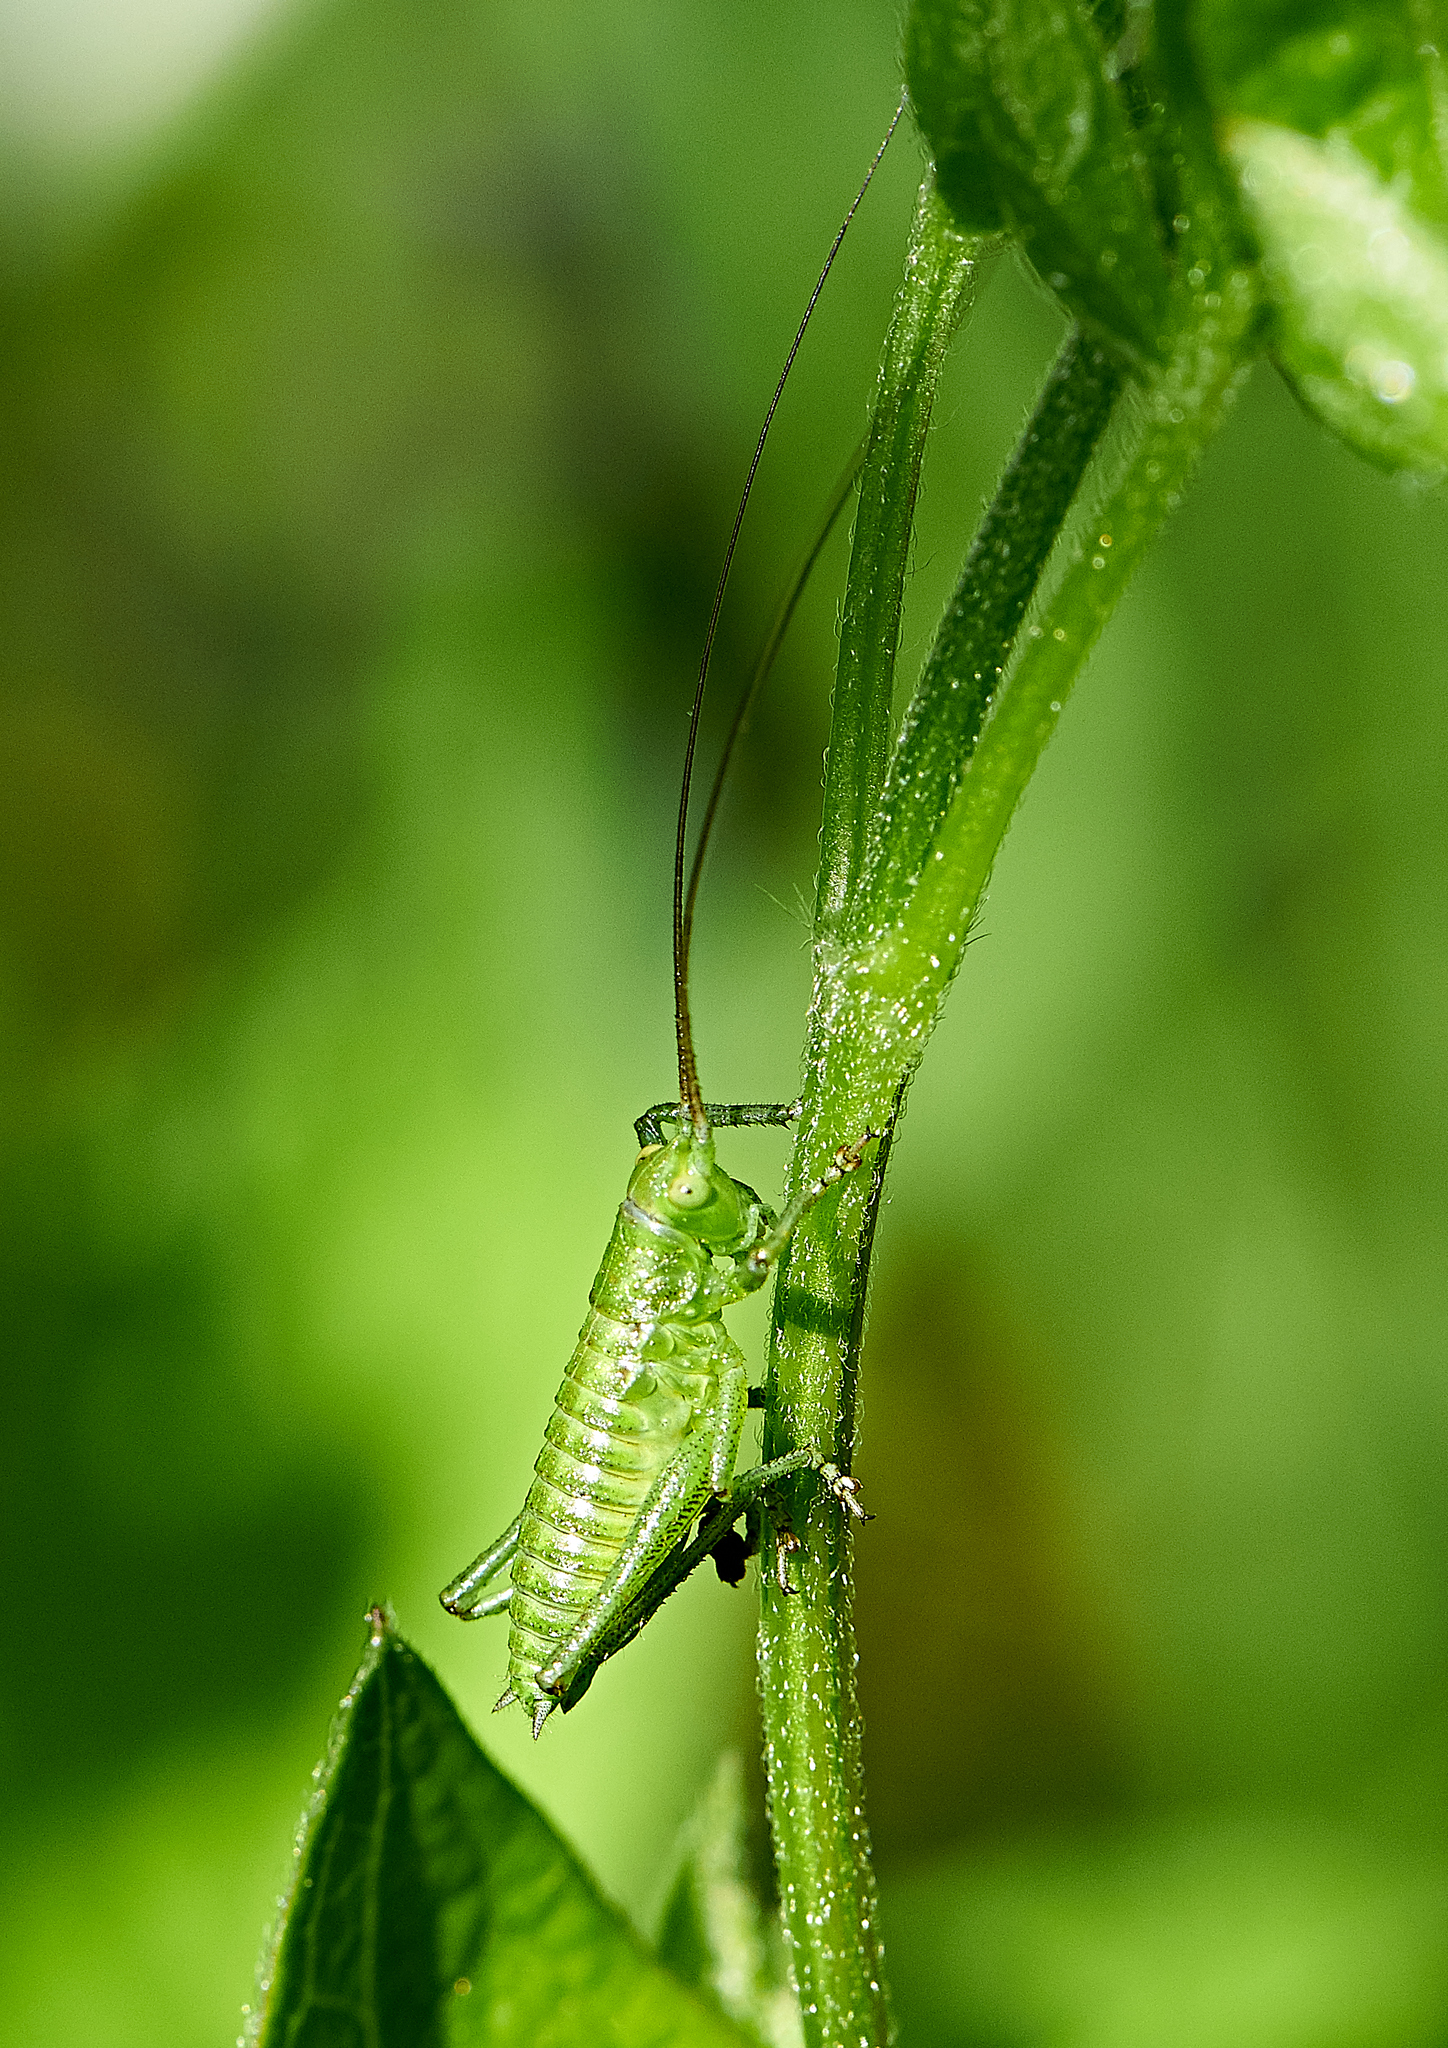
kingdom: Animalia
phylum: Arthropoda
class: Insecta
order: Orthoptera
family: Tettigoniidae
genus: Tettigonia
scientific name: Tettigonia viridissima
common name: Great green bush-cricket
